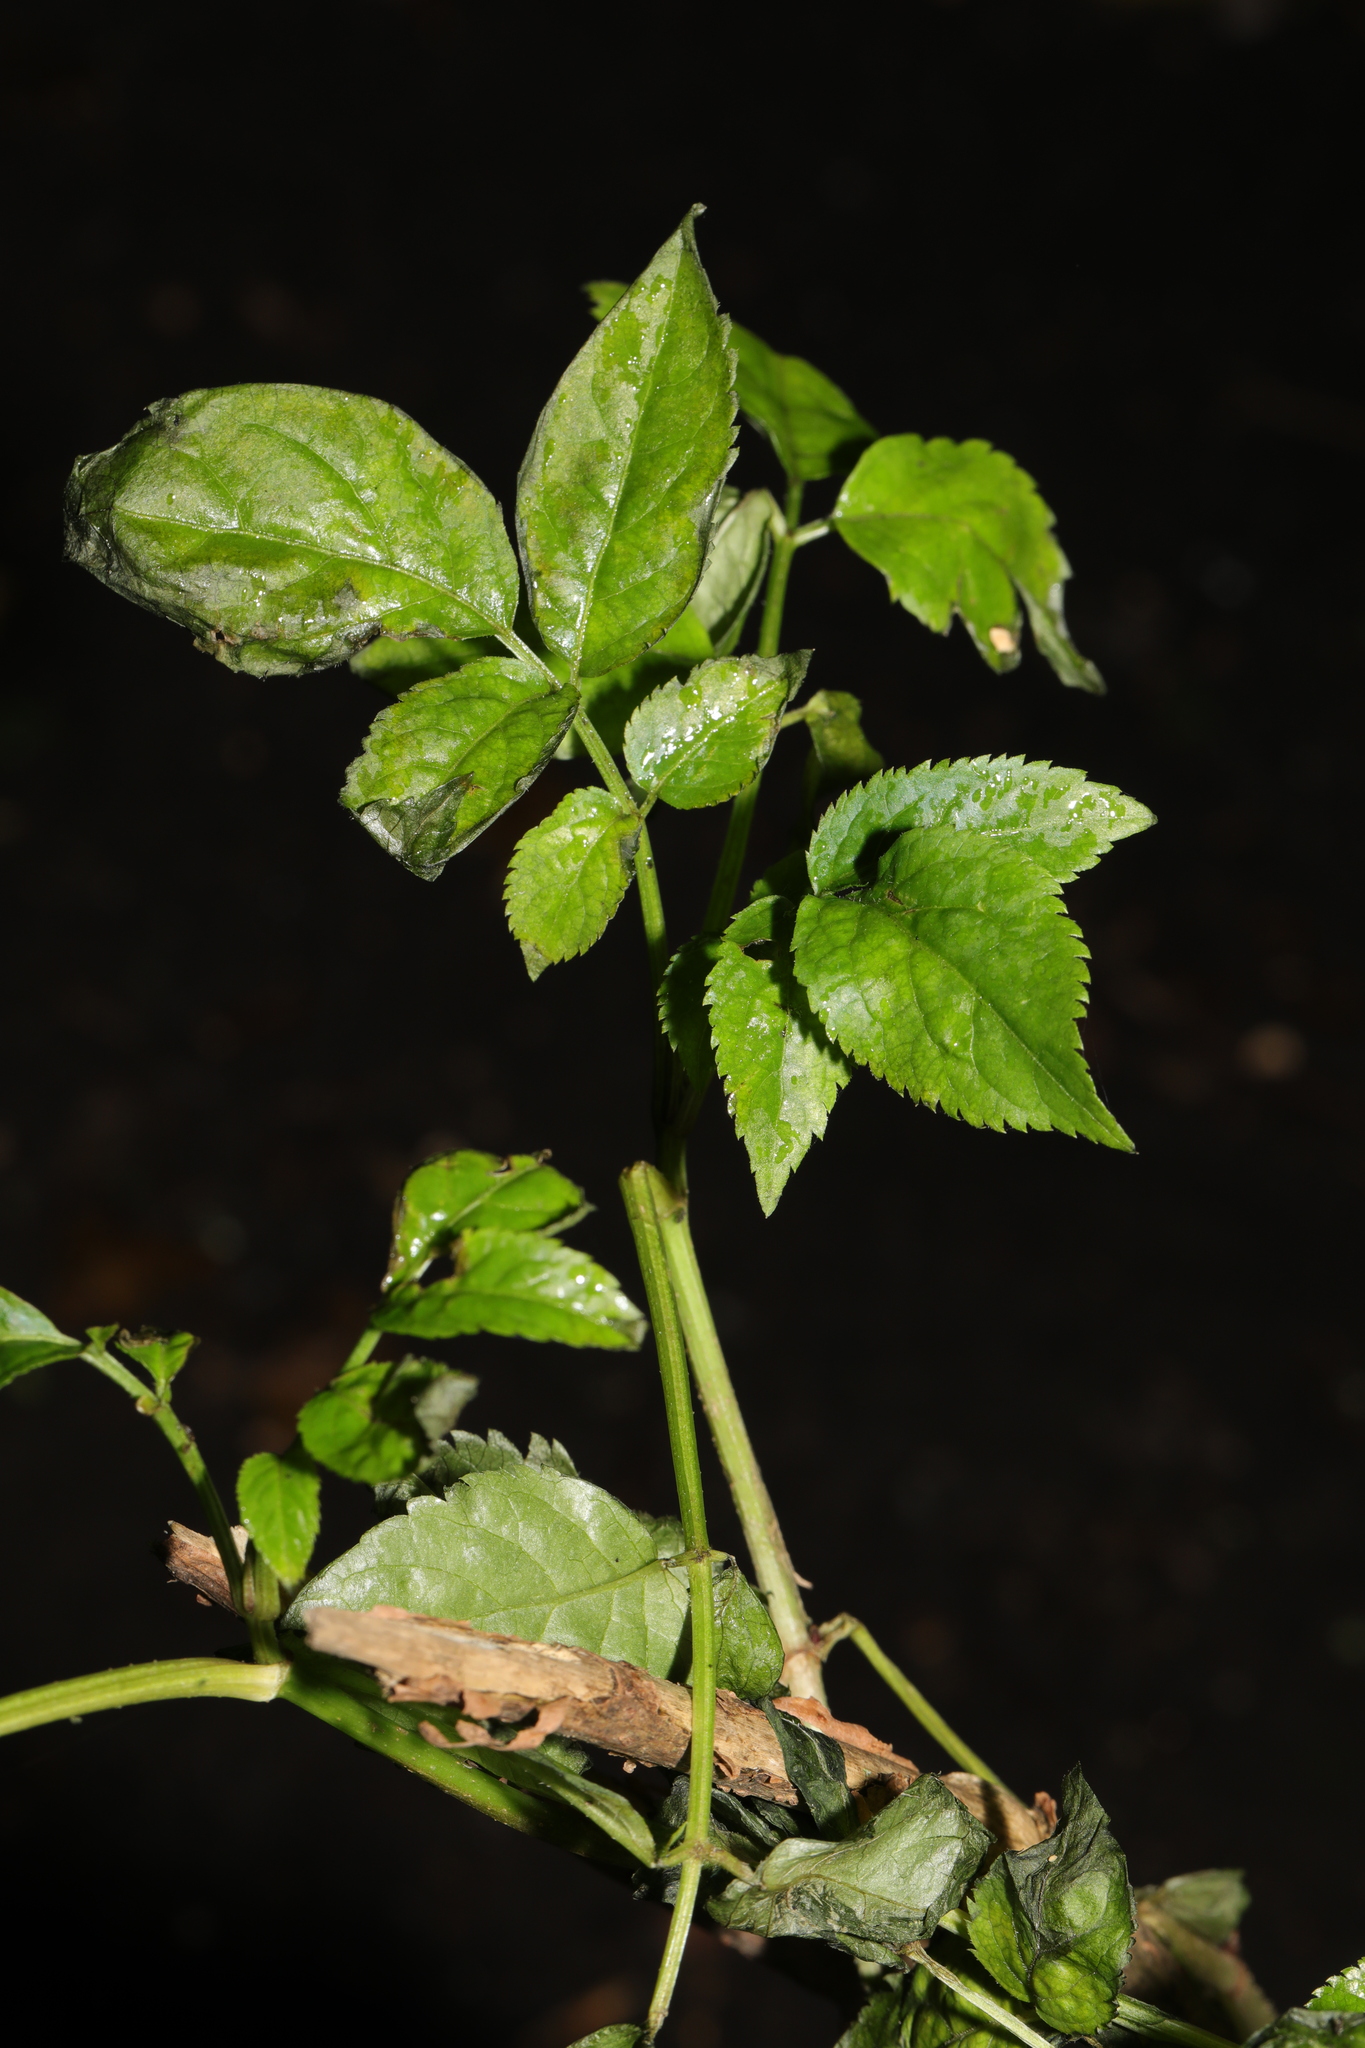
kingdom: Plantae
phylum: Tracheophyta
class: Magnoliopsida
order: Dipsacales
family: Viburnaceae
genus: Sambucus
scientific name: Sambucus nigra
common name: Elder
